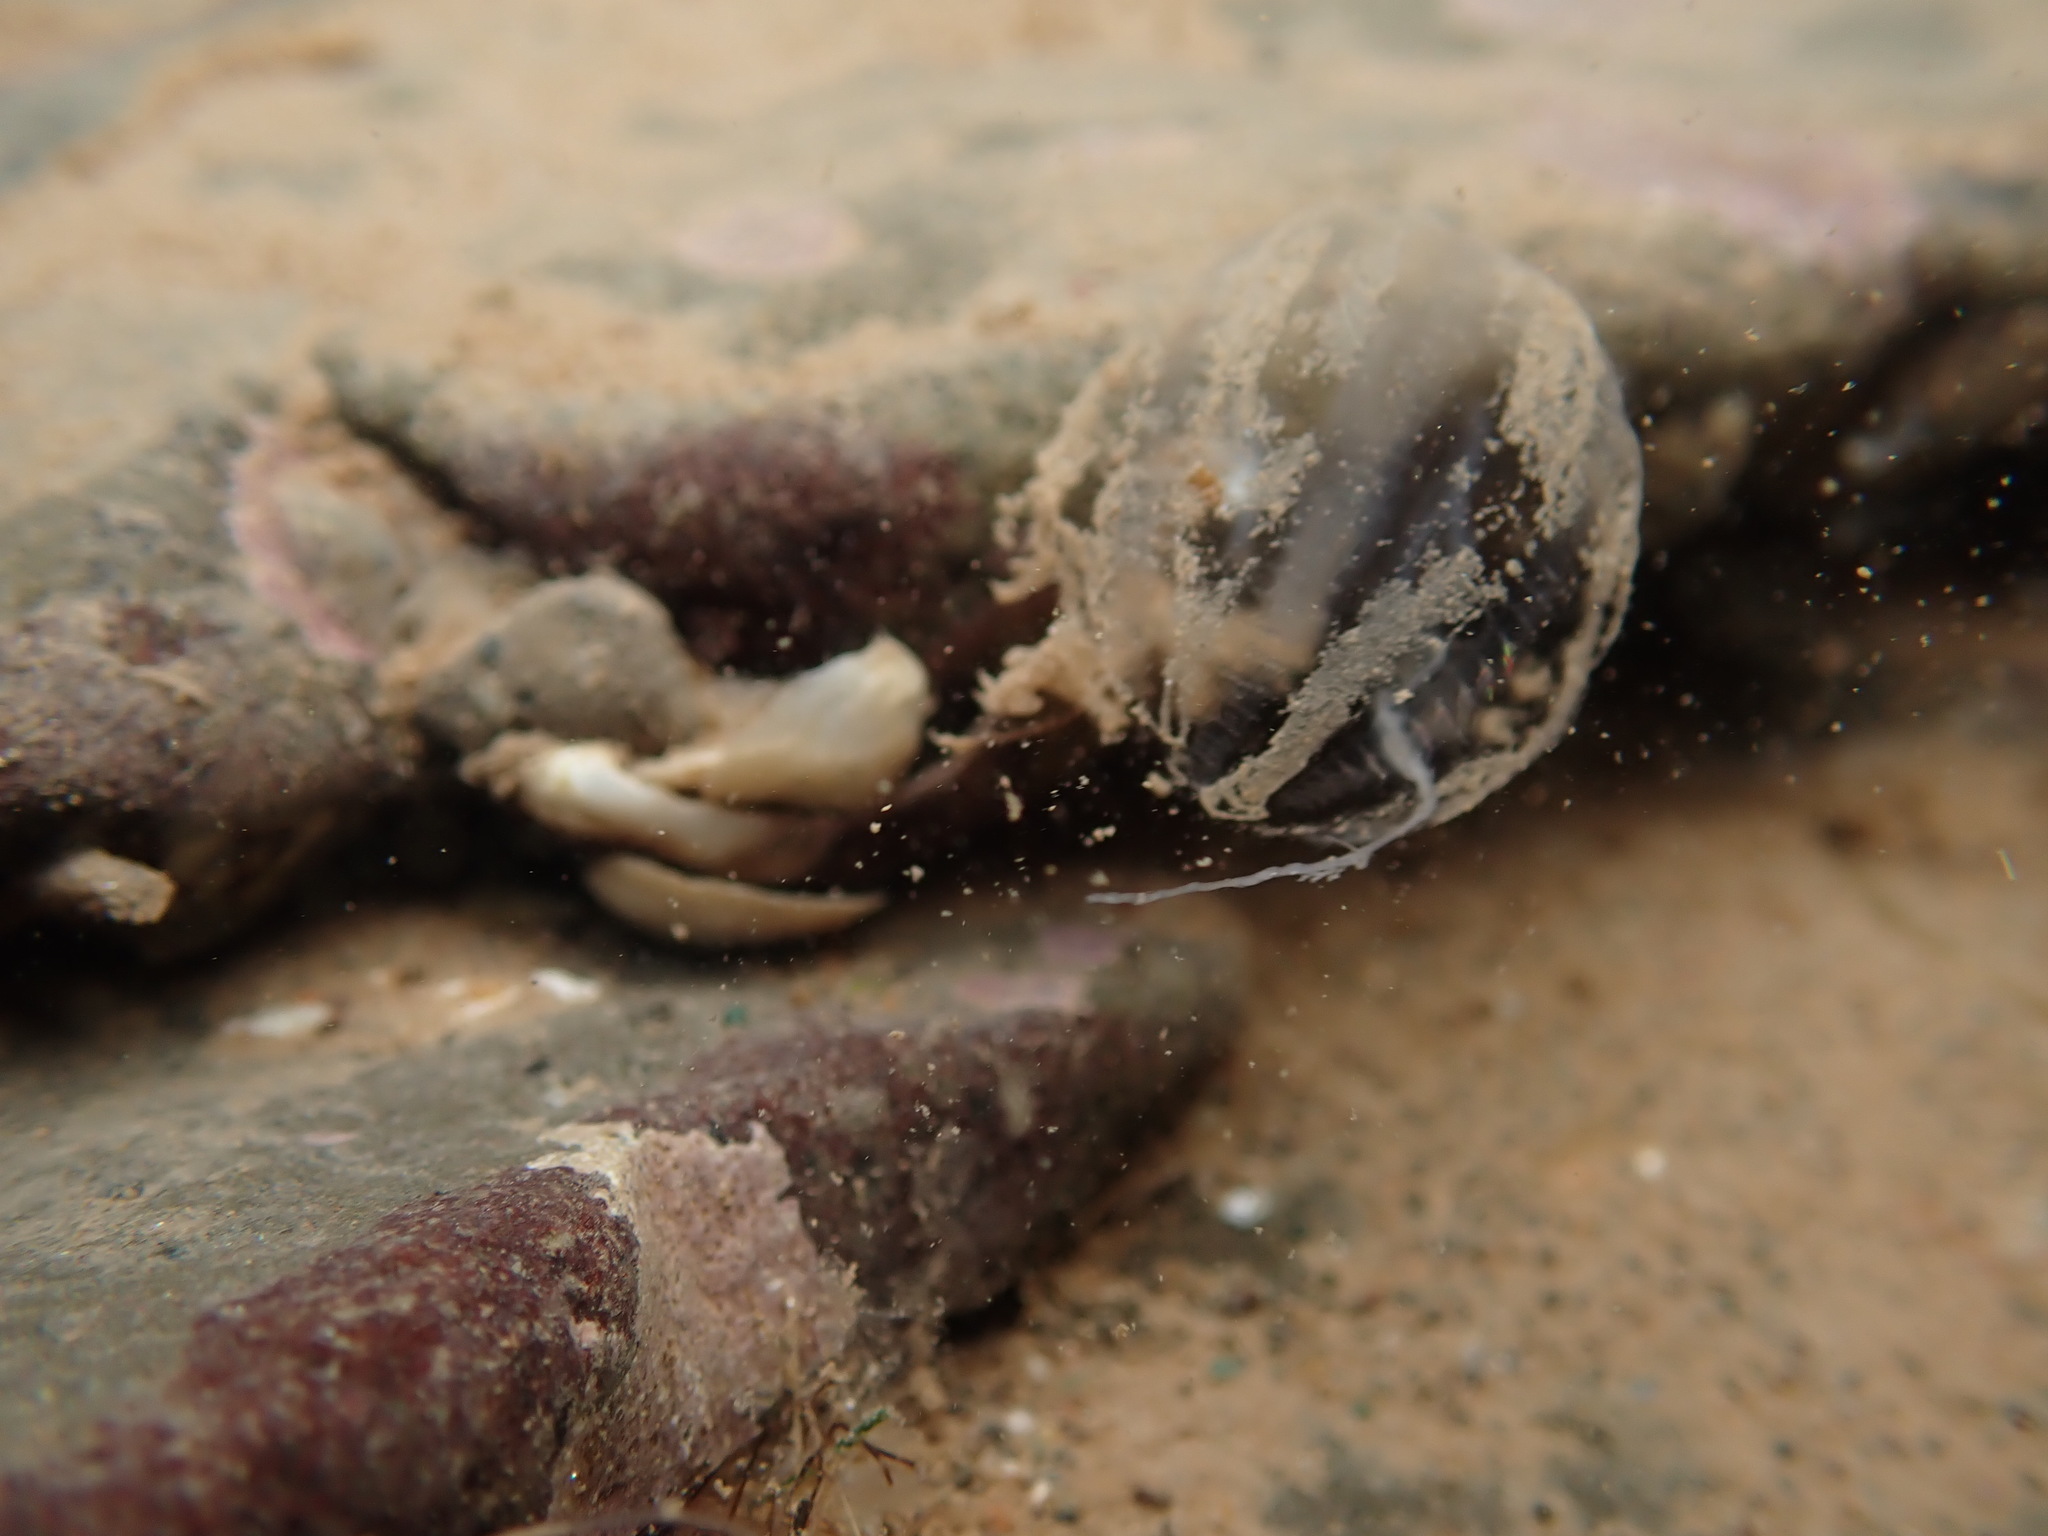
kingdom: Animalia
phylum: Ctenophora
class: Tentaculata
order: Cydippida
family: Pleurobrachiidae
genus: Pleurobrachia
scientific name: Pleurobrachia pileus
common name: Sea gooseberry
